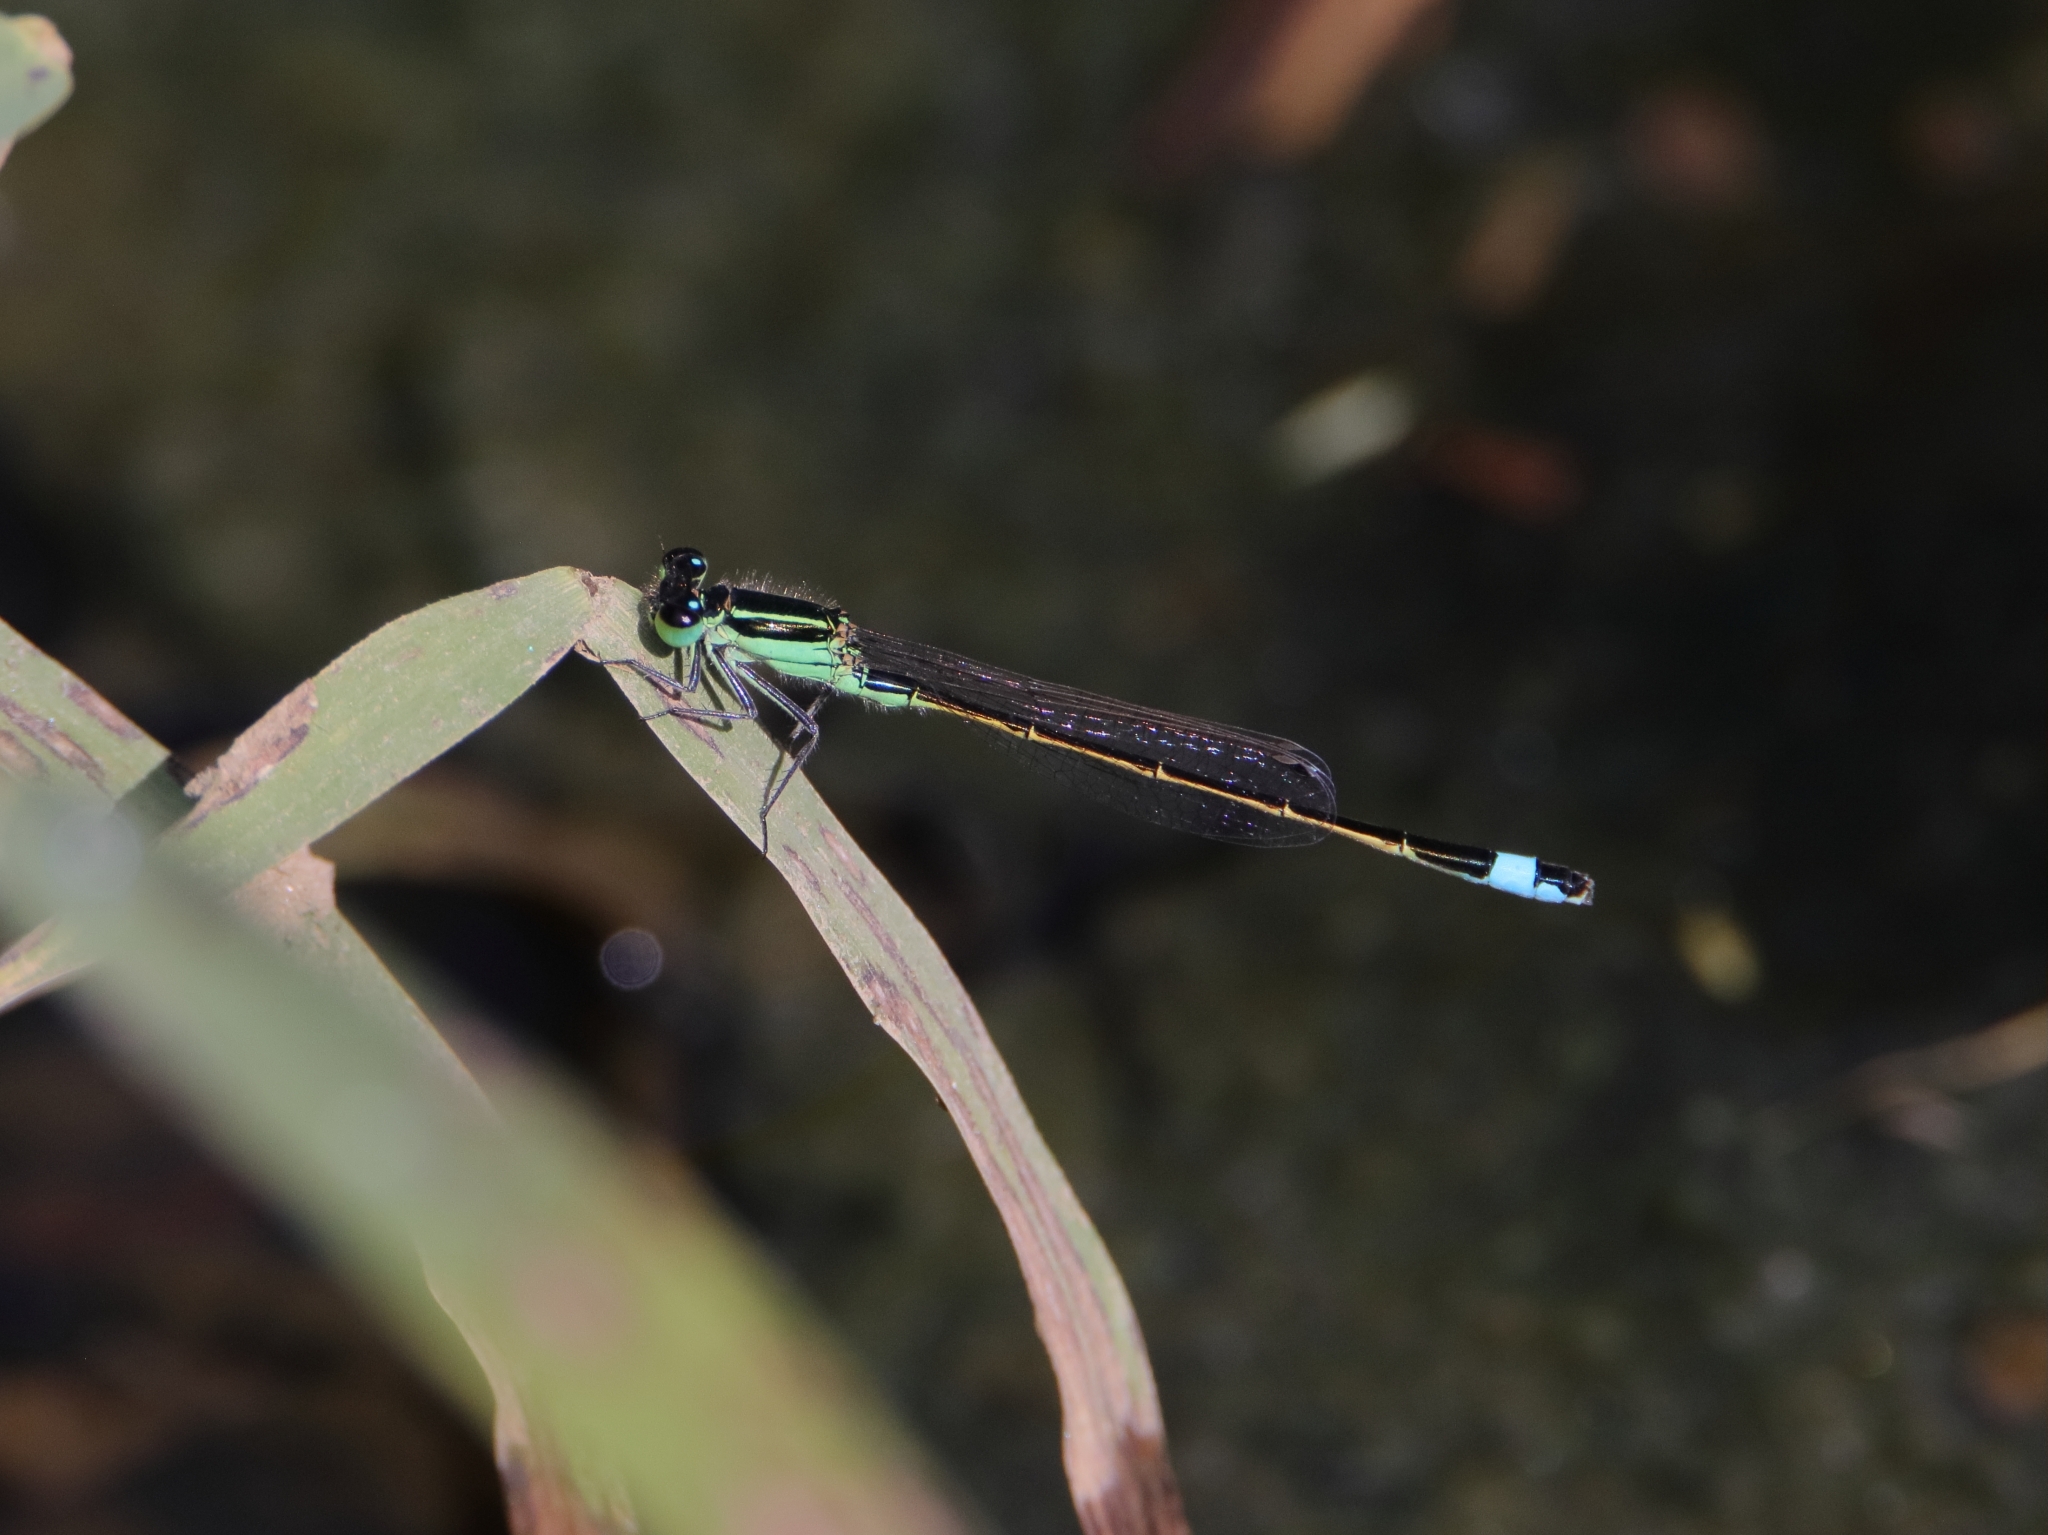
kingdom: Animalia
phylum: Arthropoda
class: Insecta
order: Odonata
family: Coenagrionidae
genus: Ischnura
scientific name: Ischnura ramburii
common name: Rambur's forktail
